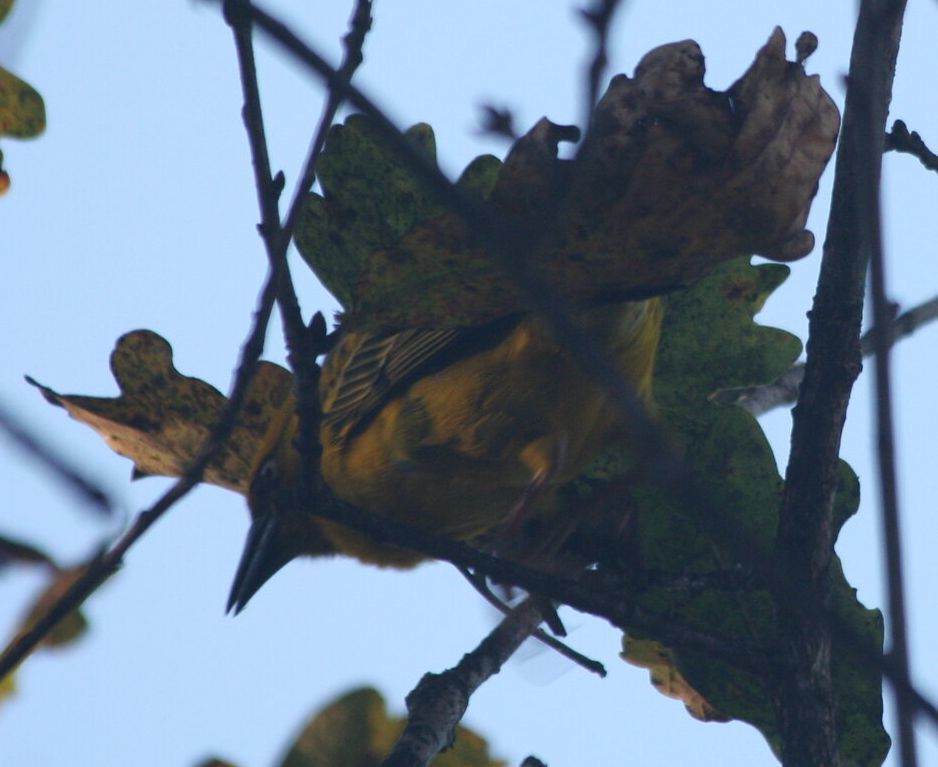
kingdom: Animalia
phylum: Chordata
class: Aves
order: Passeriformes
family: Ploceidae
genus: Ploceus
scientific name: Ploceus capensis
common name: Cape weaver
